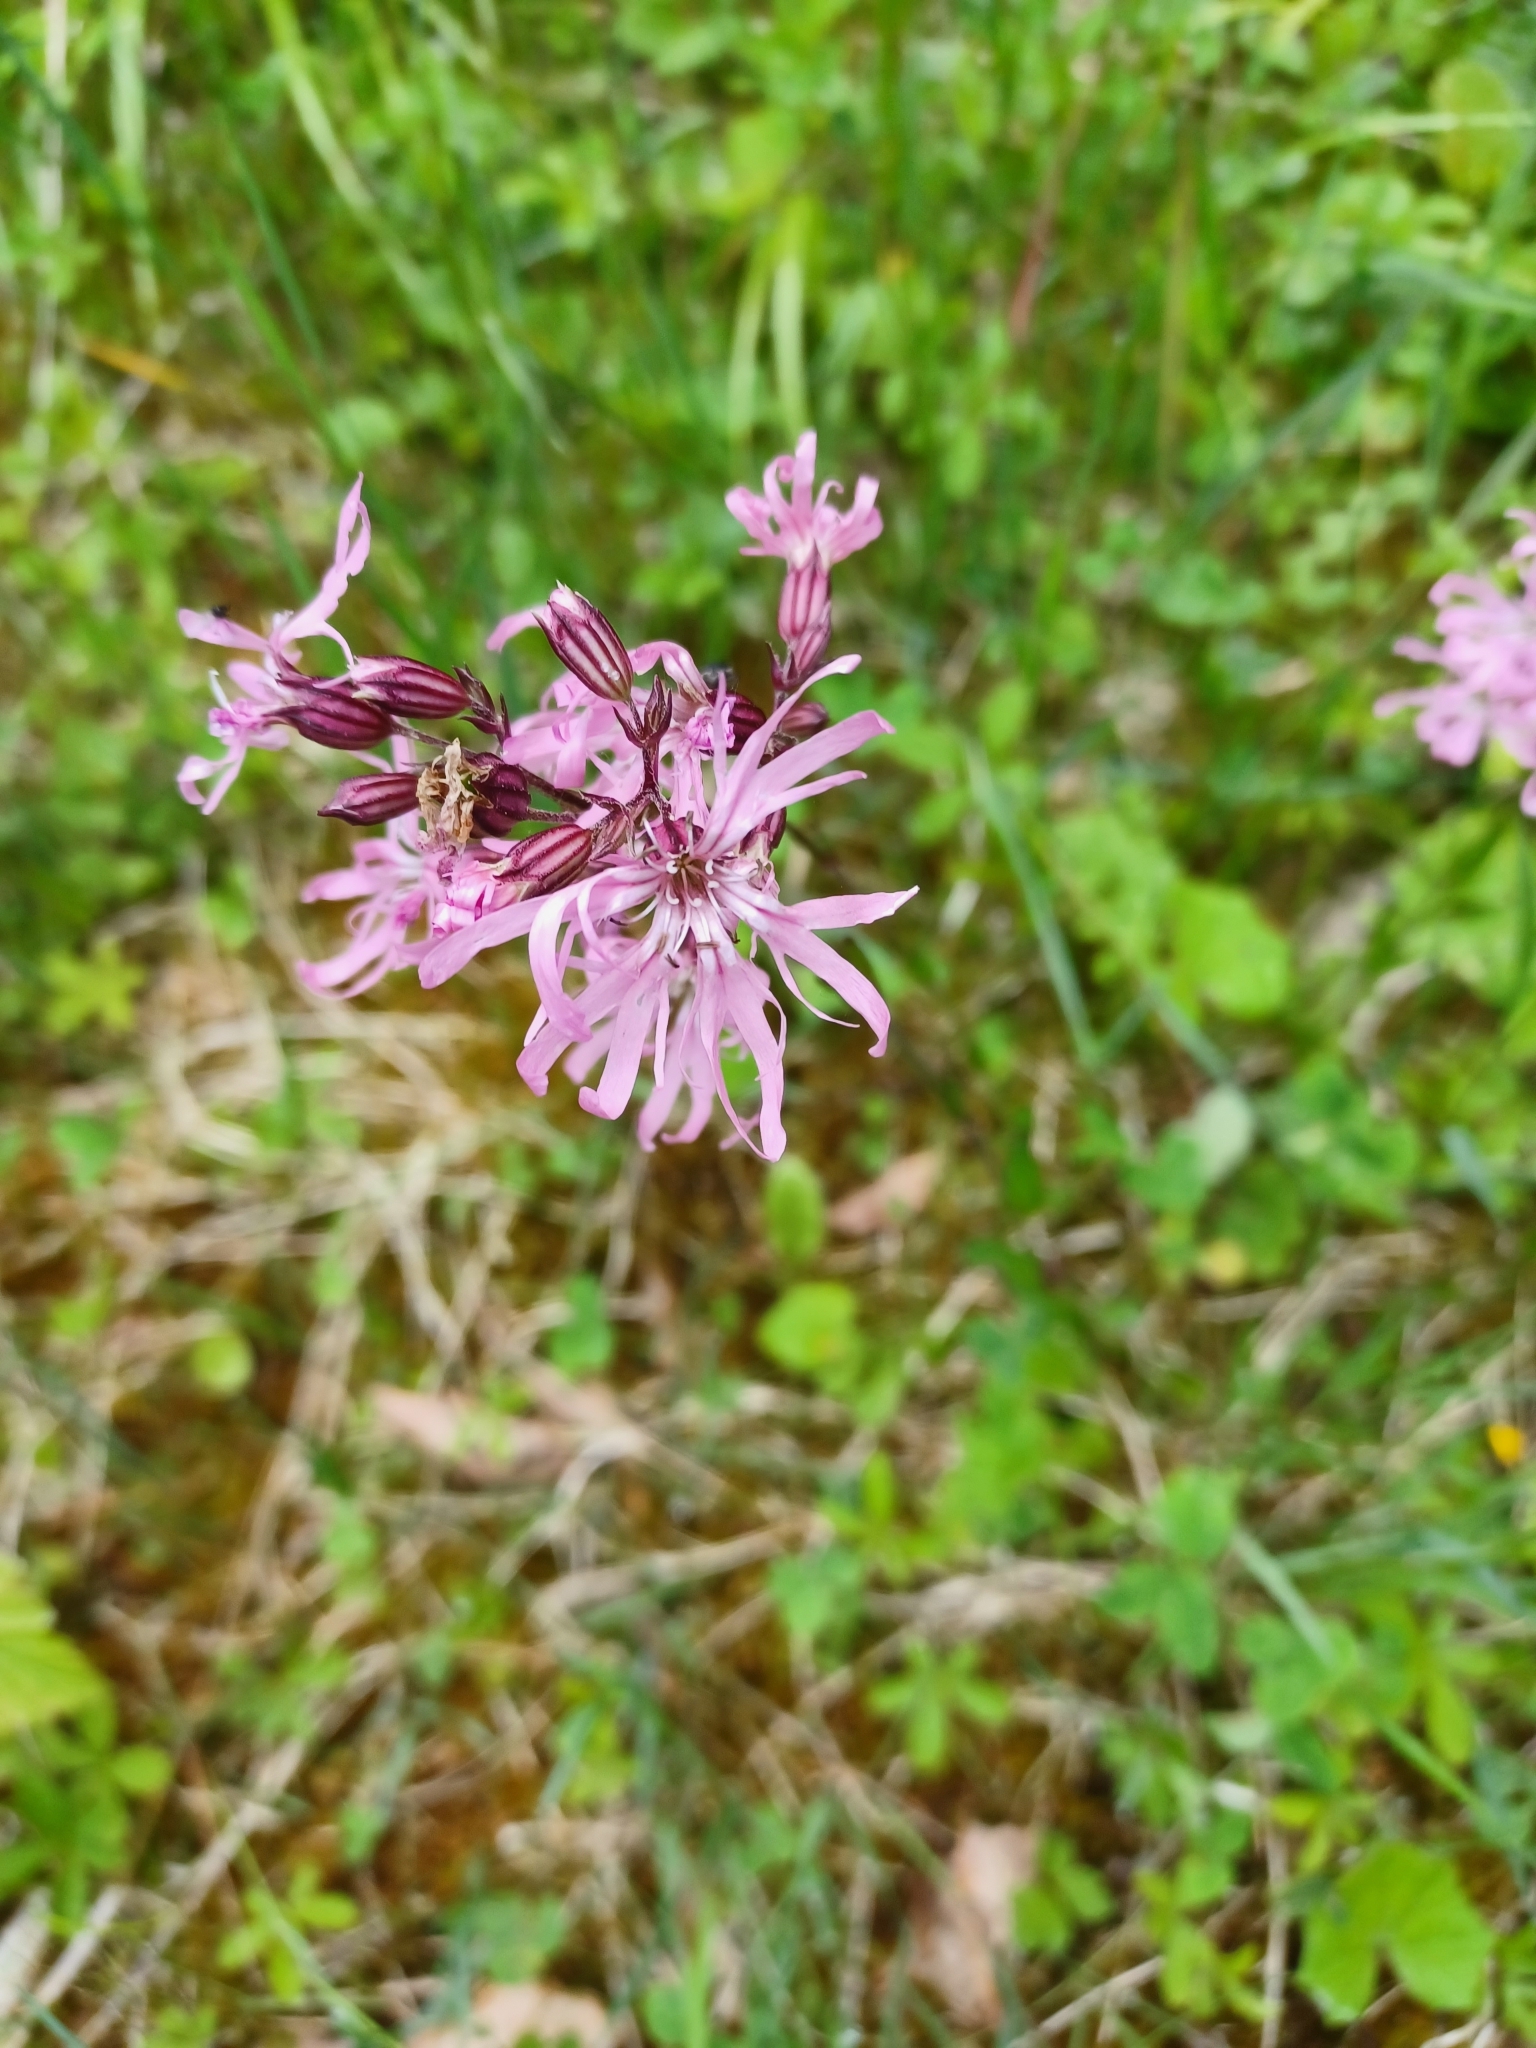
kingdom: Plantae
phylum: Tracheophyta
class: Magnoliopsida
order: Caryophyllales
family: Caryophyllaceae
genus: Silene
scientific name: Silene flos-cuculi
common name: Ragged-robin
